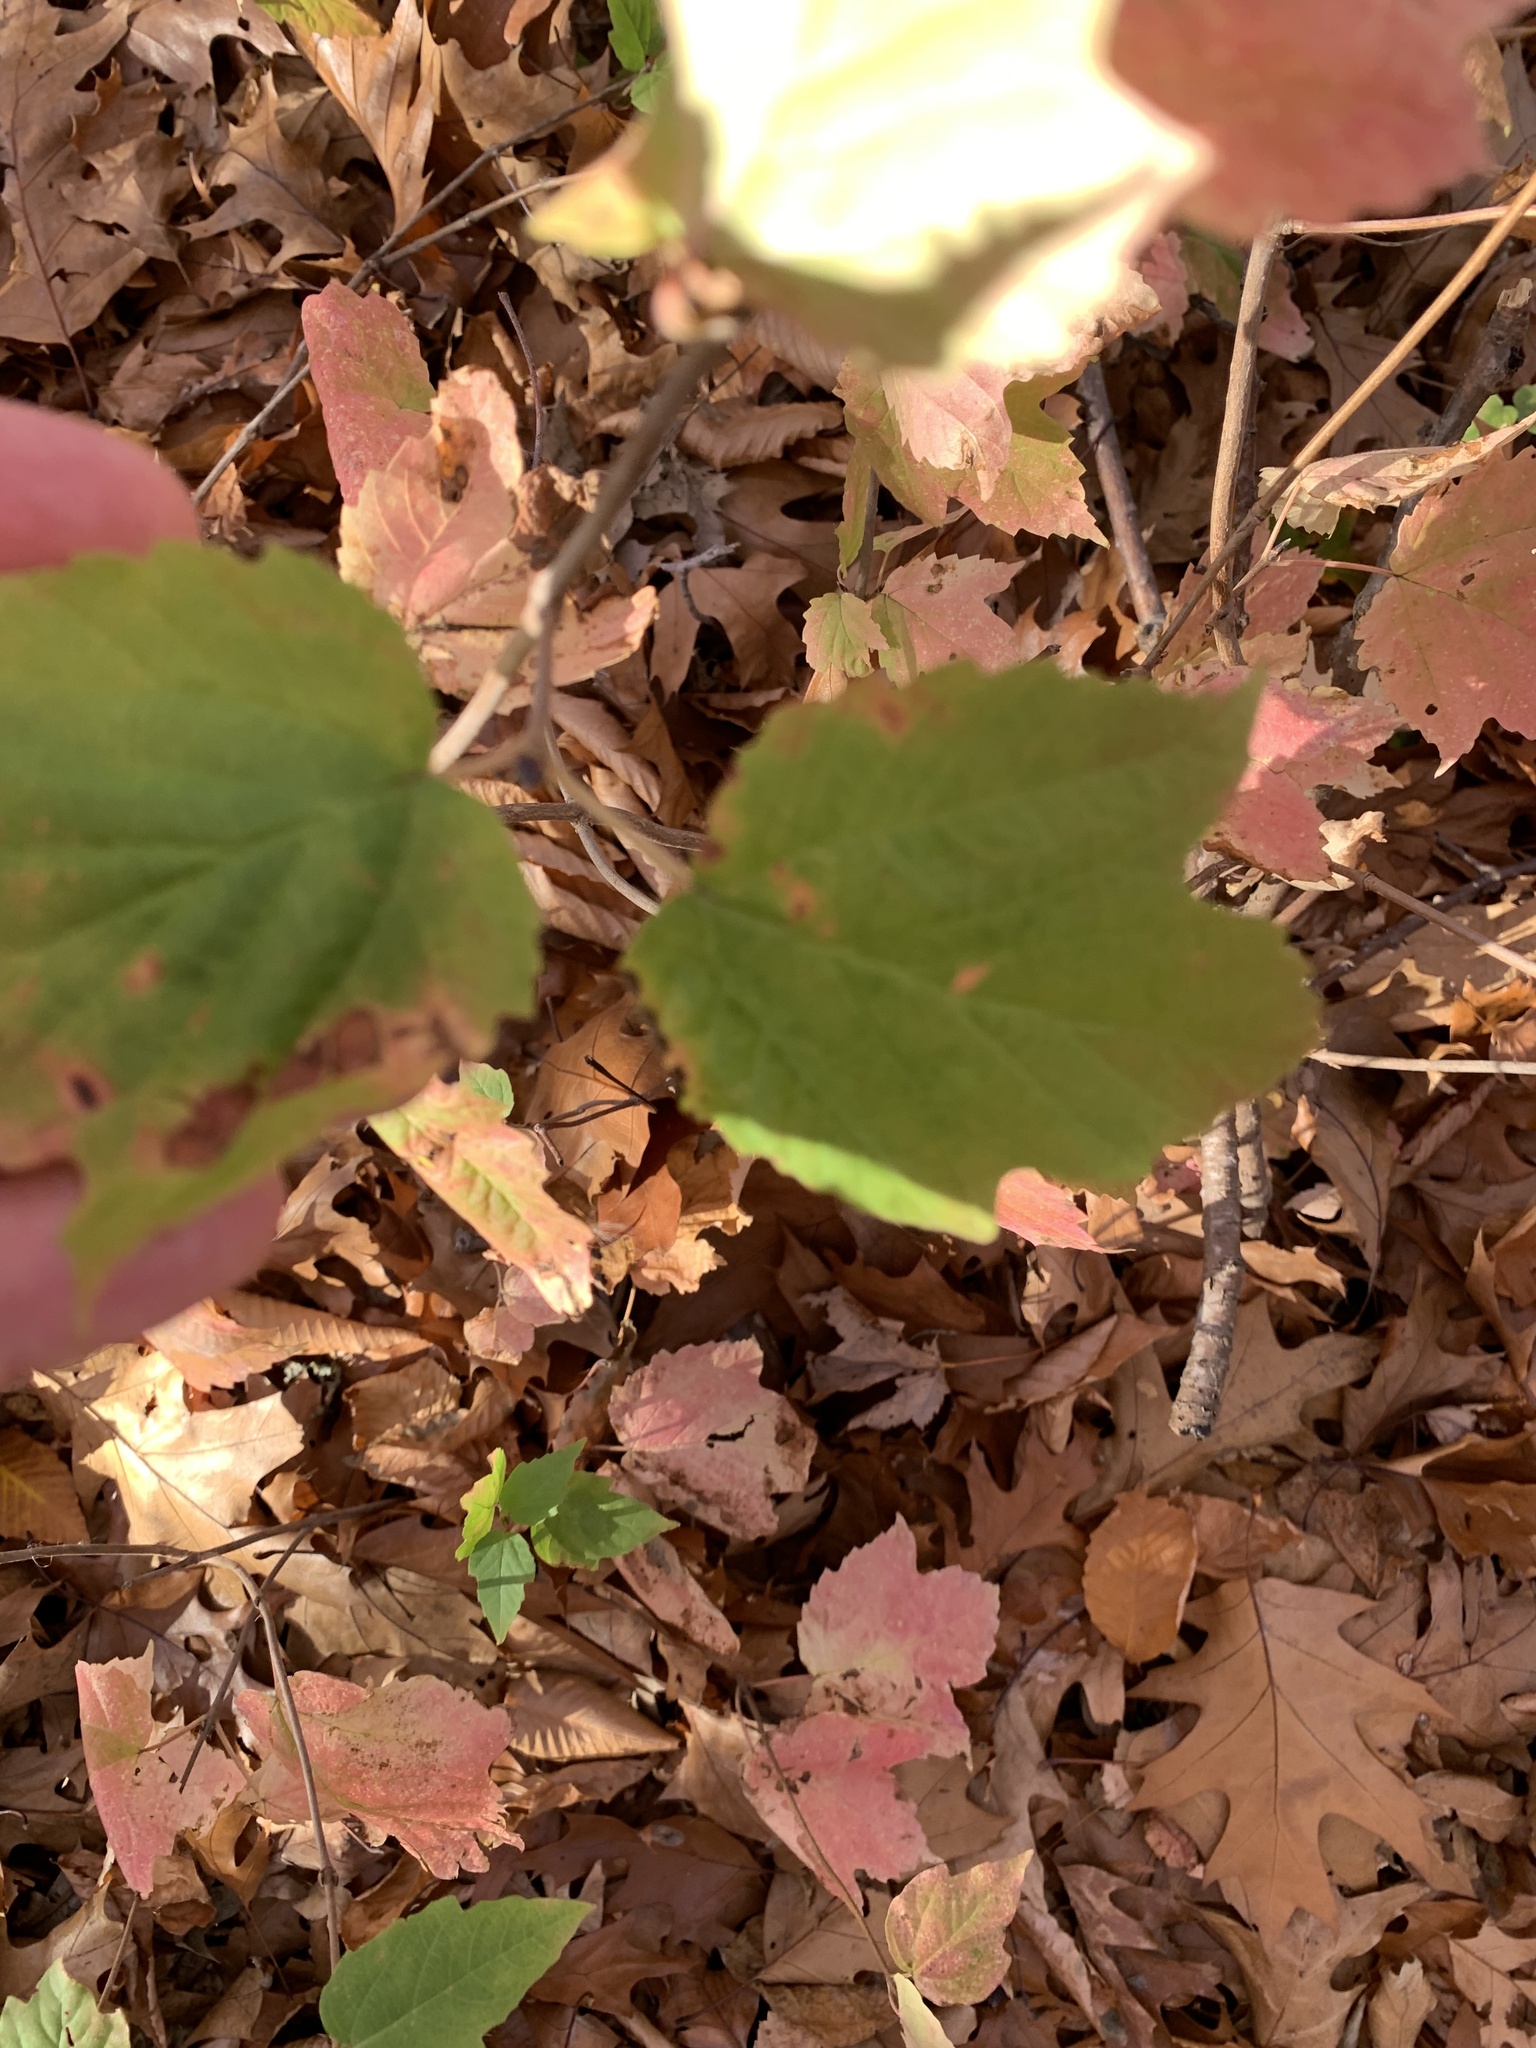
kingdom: Plantae
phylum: Tracheophyta
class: Magnoliopsida
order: Dipsacales
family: Viburnaceae
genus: Viburnum
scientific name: Viburnum acerifolium
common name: Dockmackie
